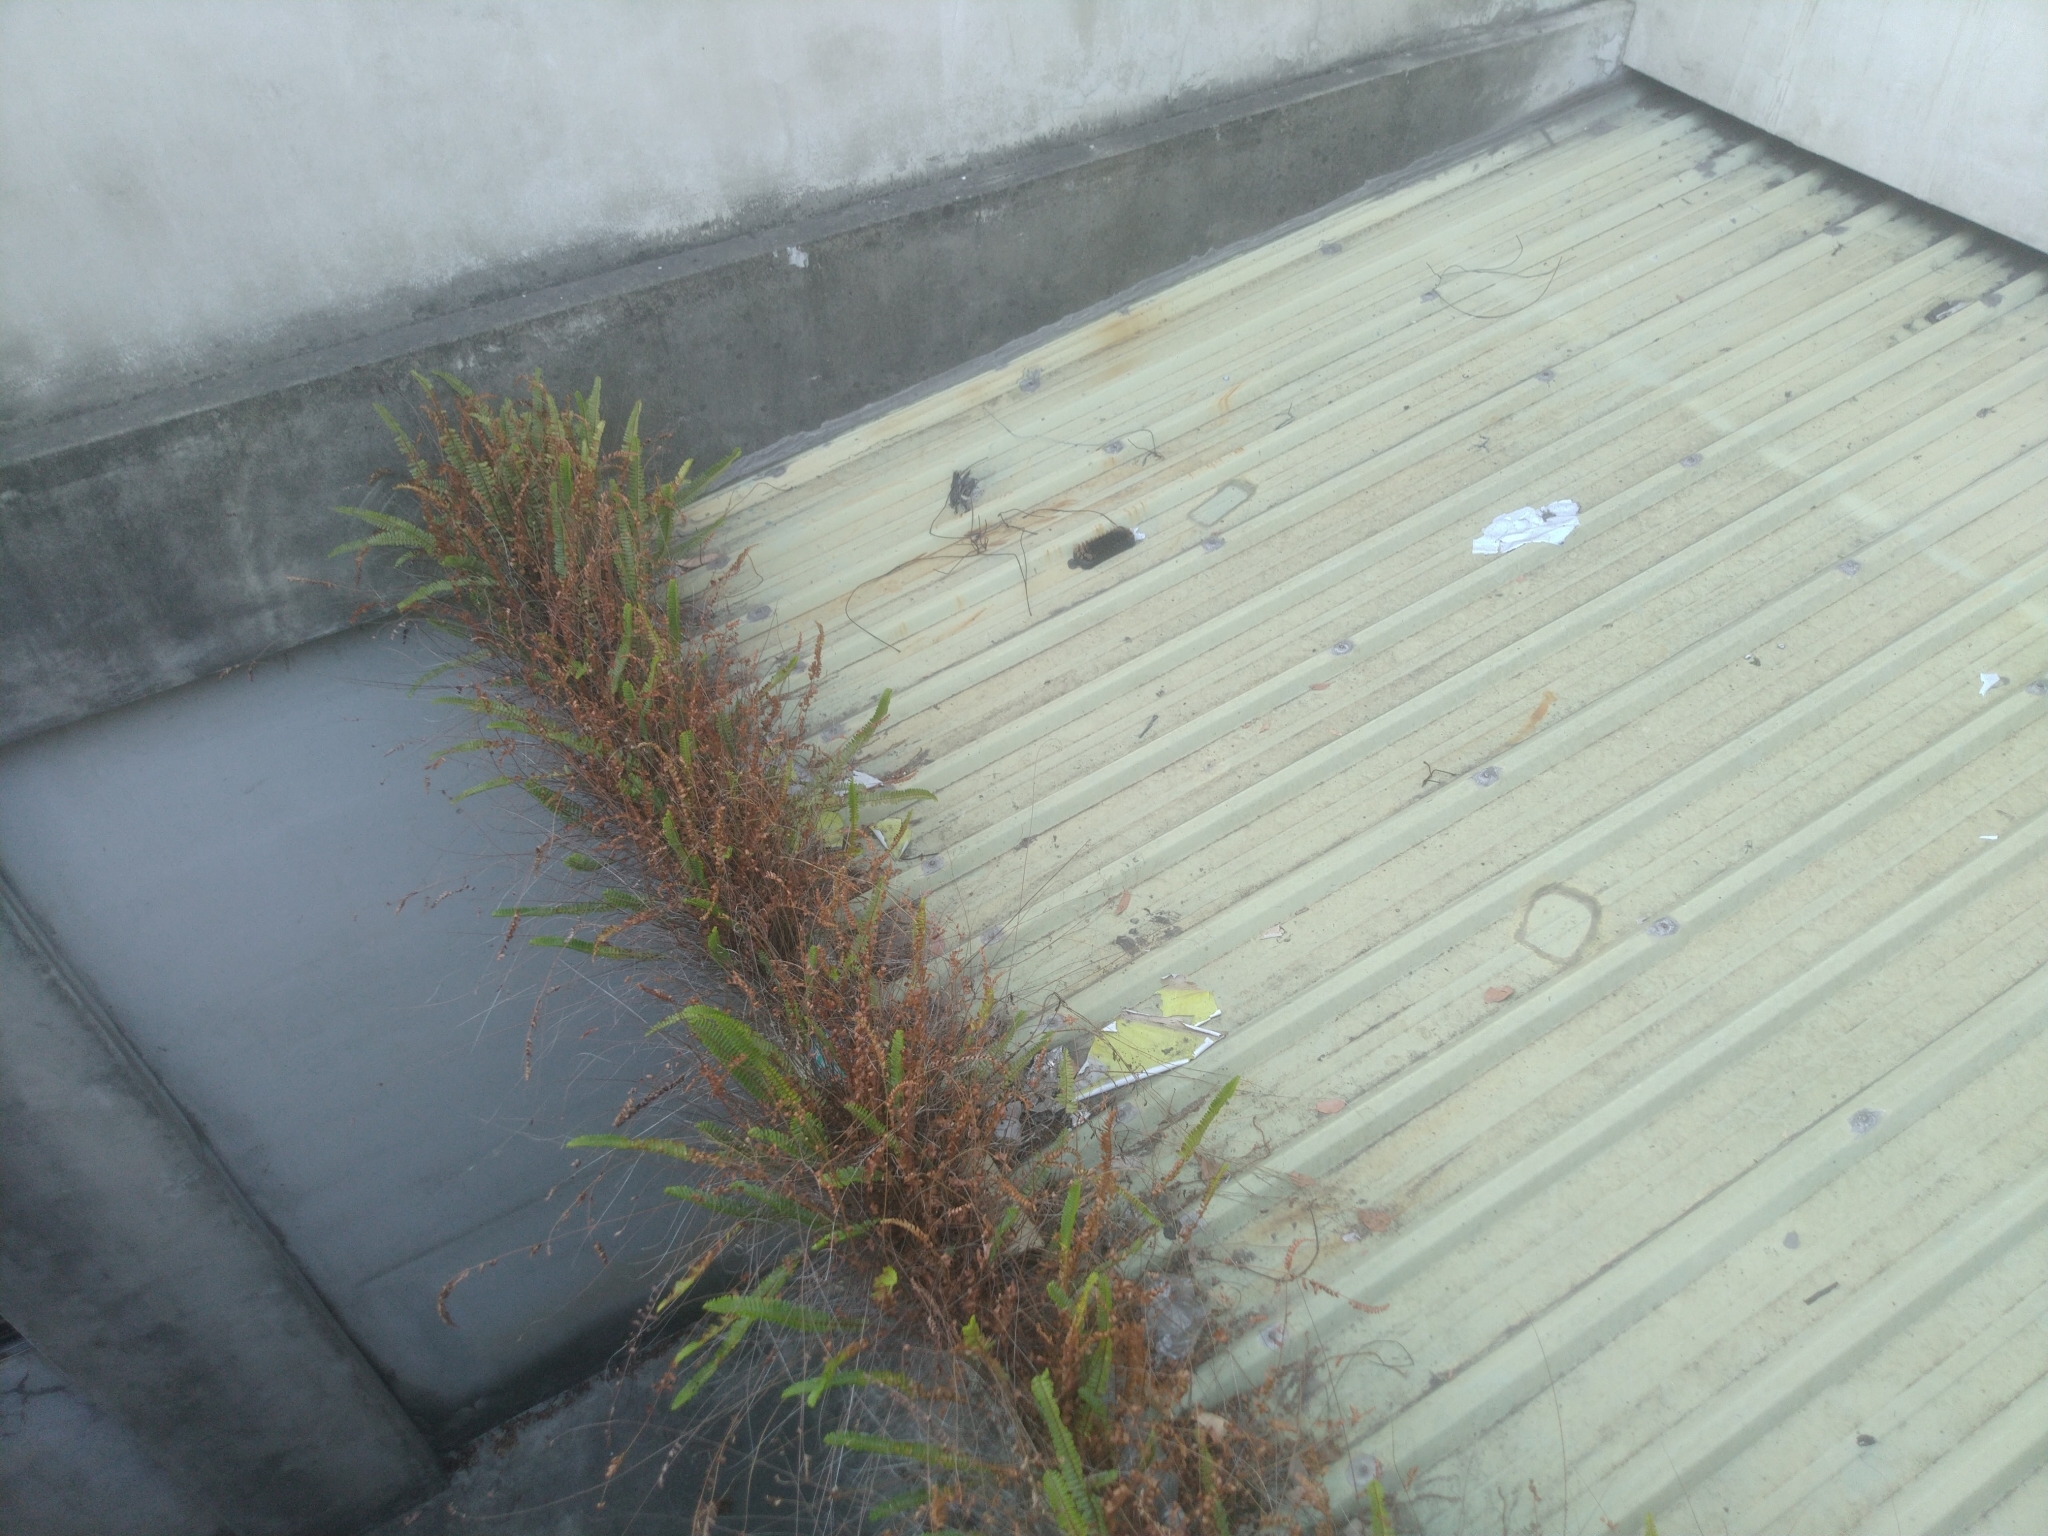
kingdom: Plantae
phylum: Tracheophyta
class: Polypodiopsida
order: Polypodiales
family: Nephrolepidaceae
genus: Nephrolepis
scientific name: Nephrolepis cordifolia
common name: Narrow swordfern
